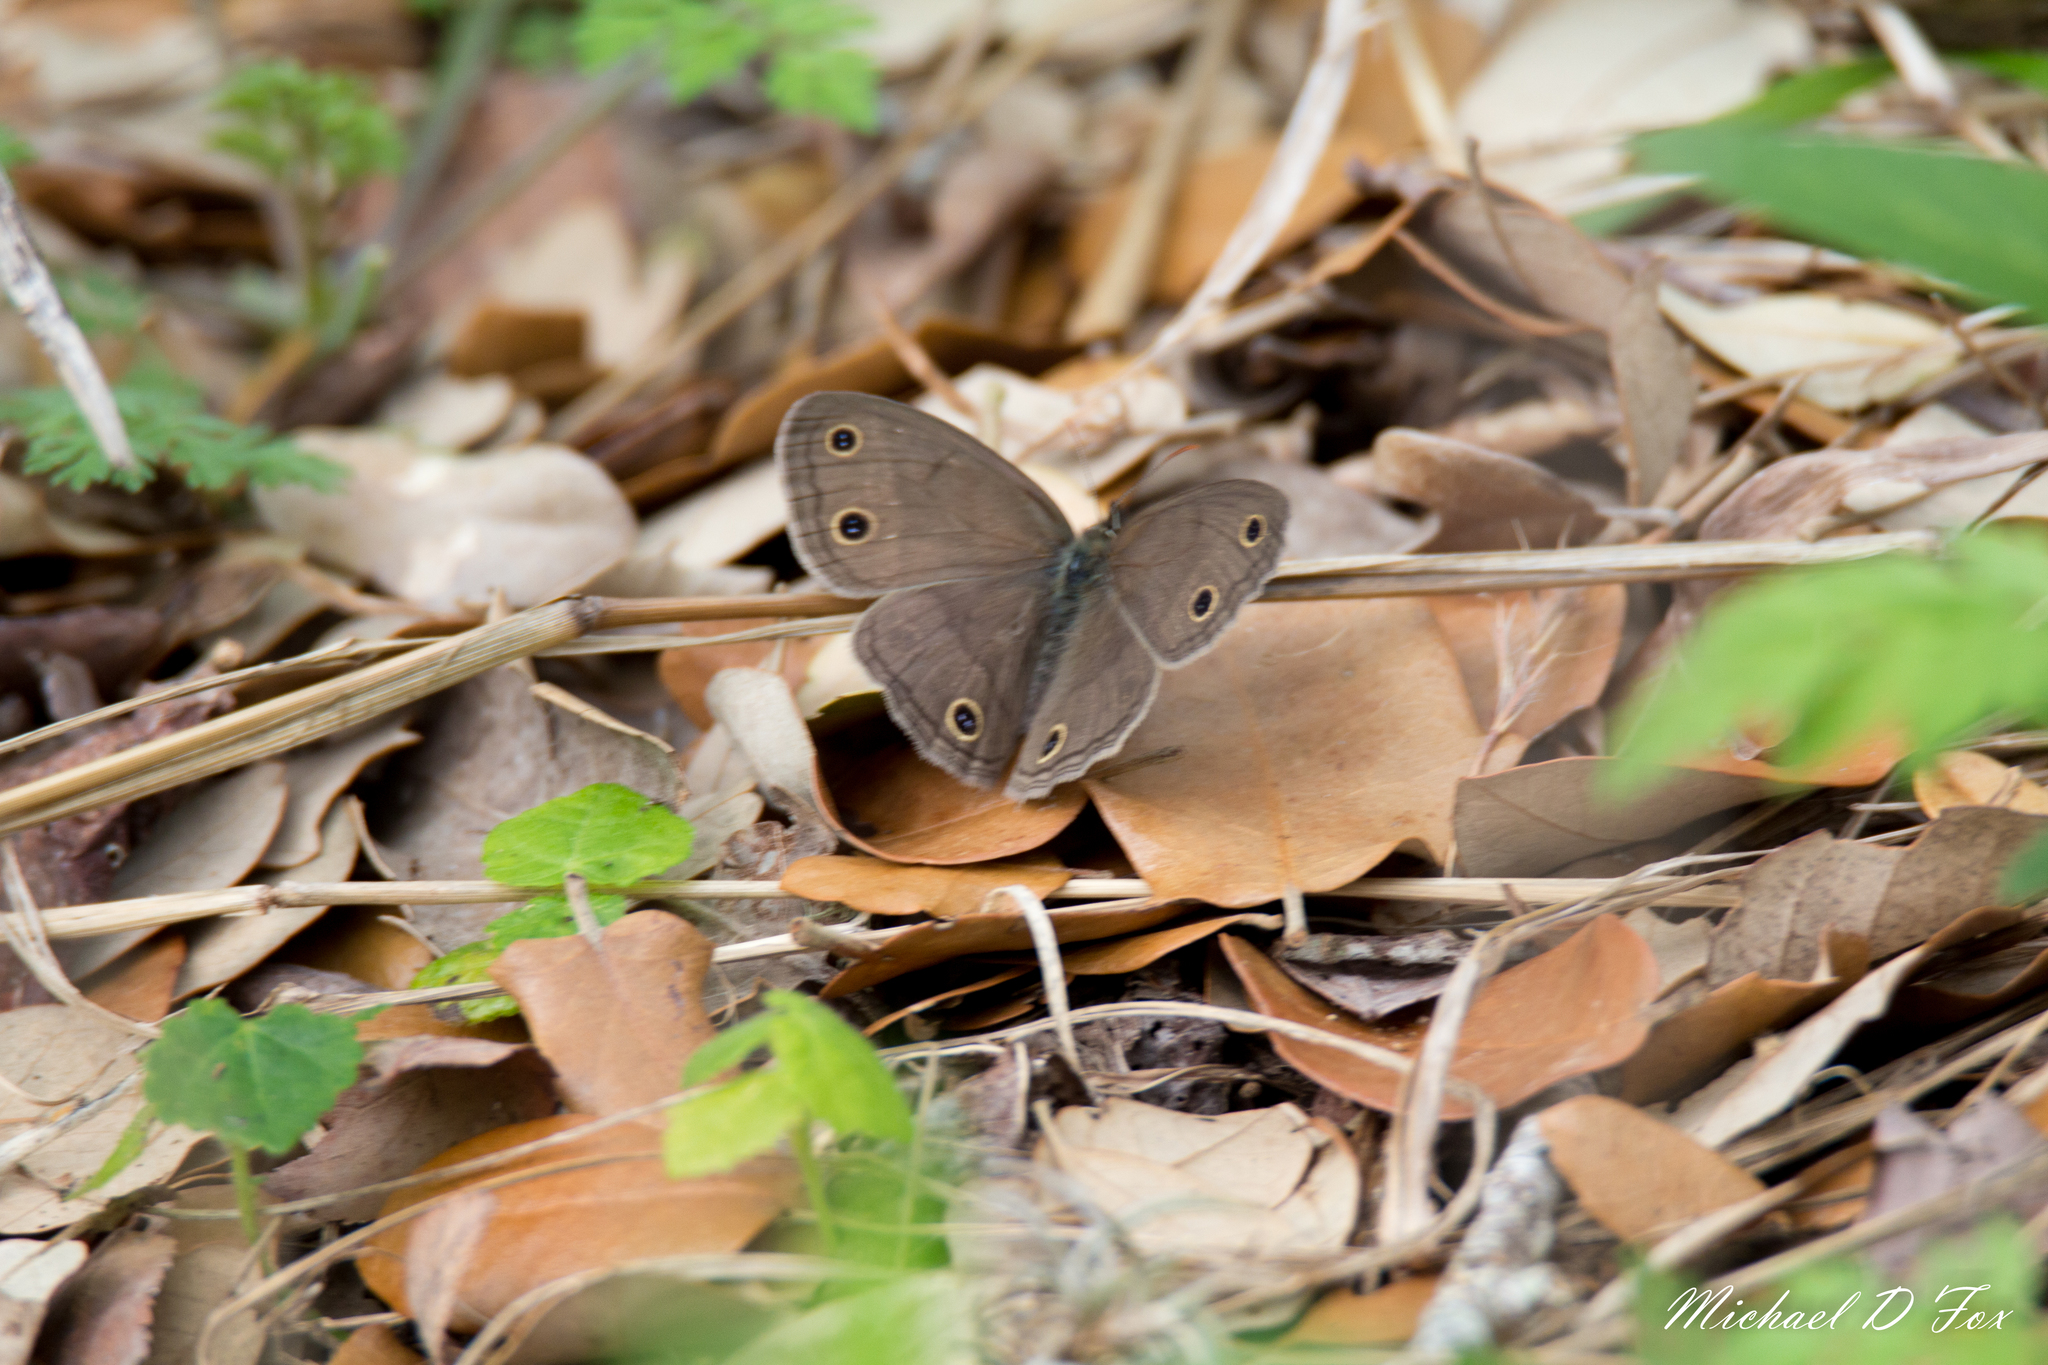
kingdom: Animalia
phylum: Arthropoda
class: Insecta
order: Lepidoptera
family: Nymphalidae
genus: Euptychia
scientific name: Euptychia cymela
